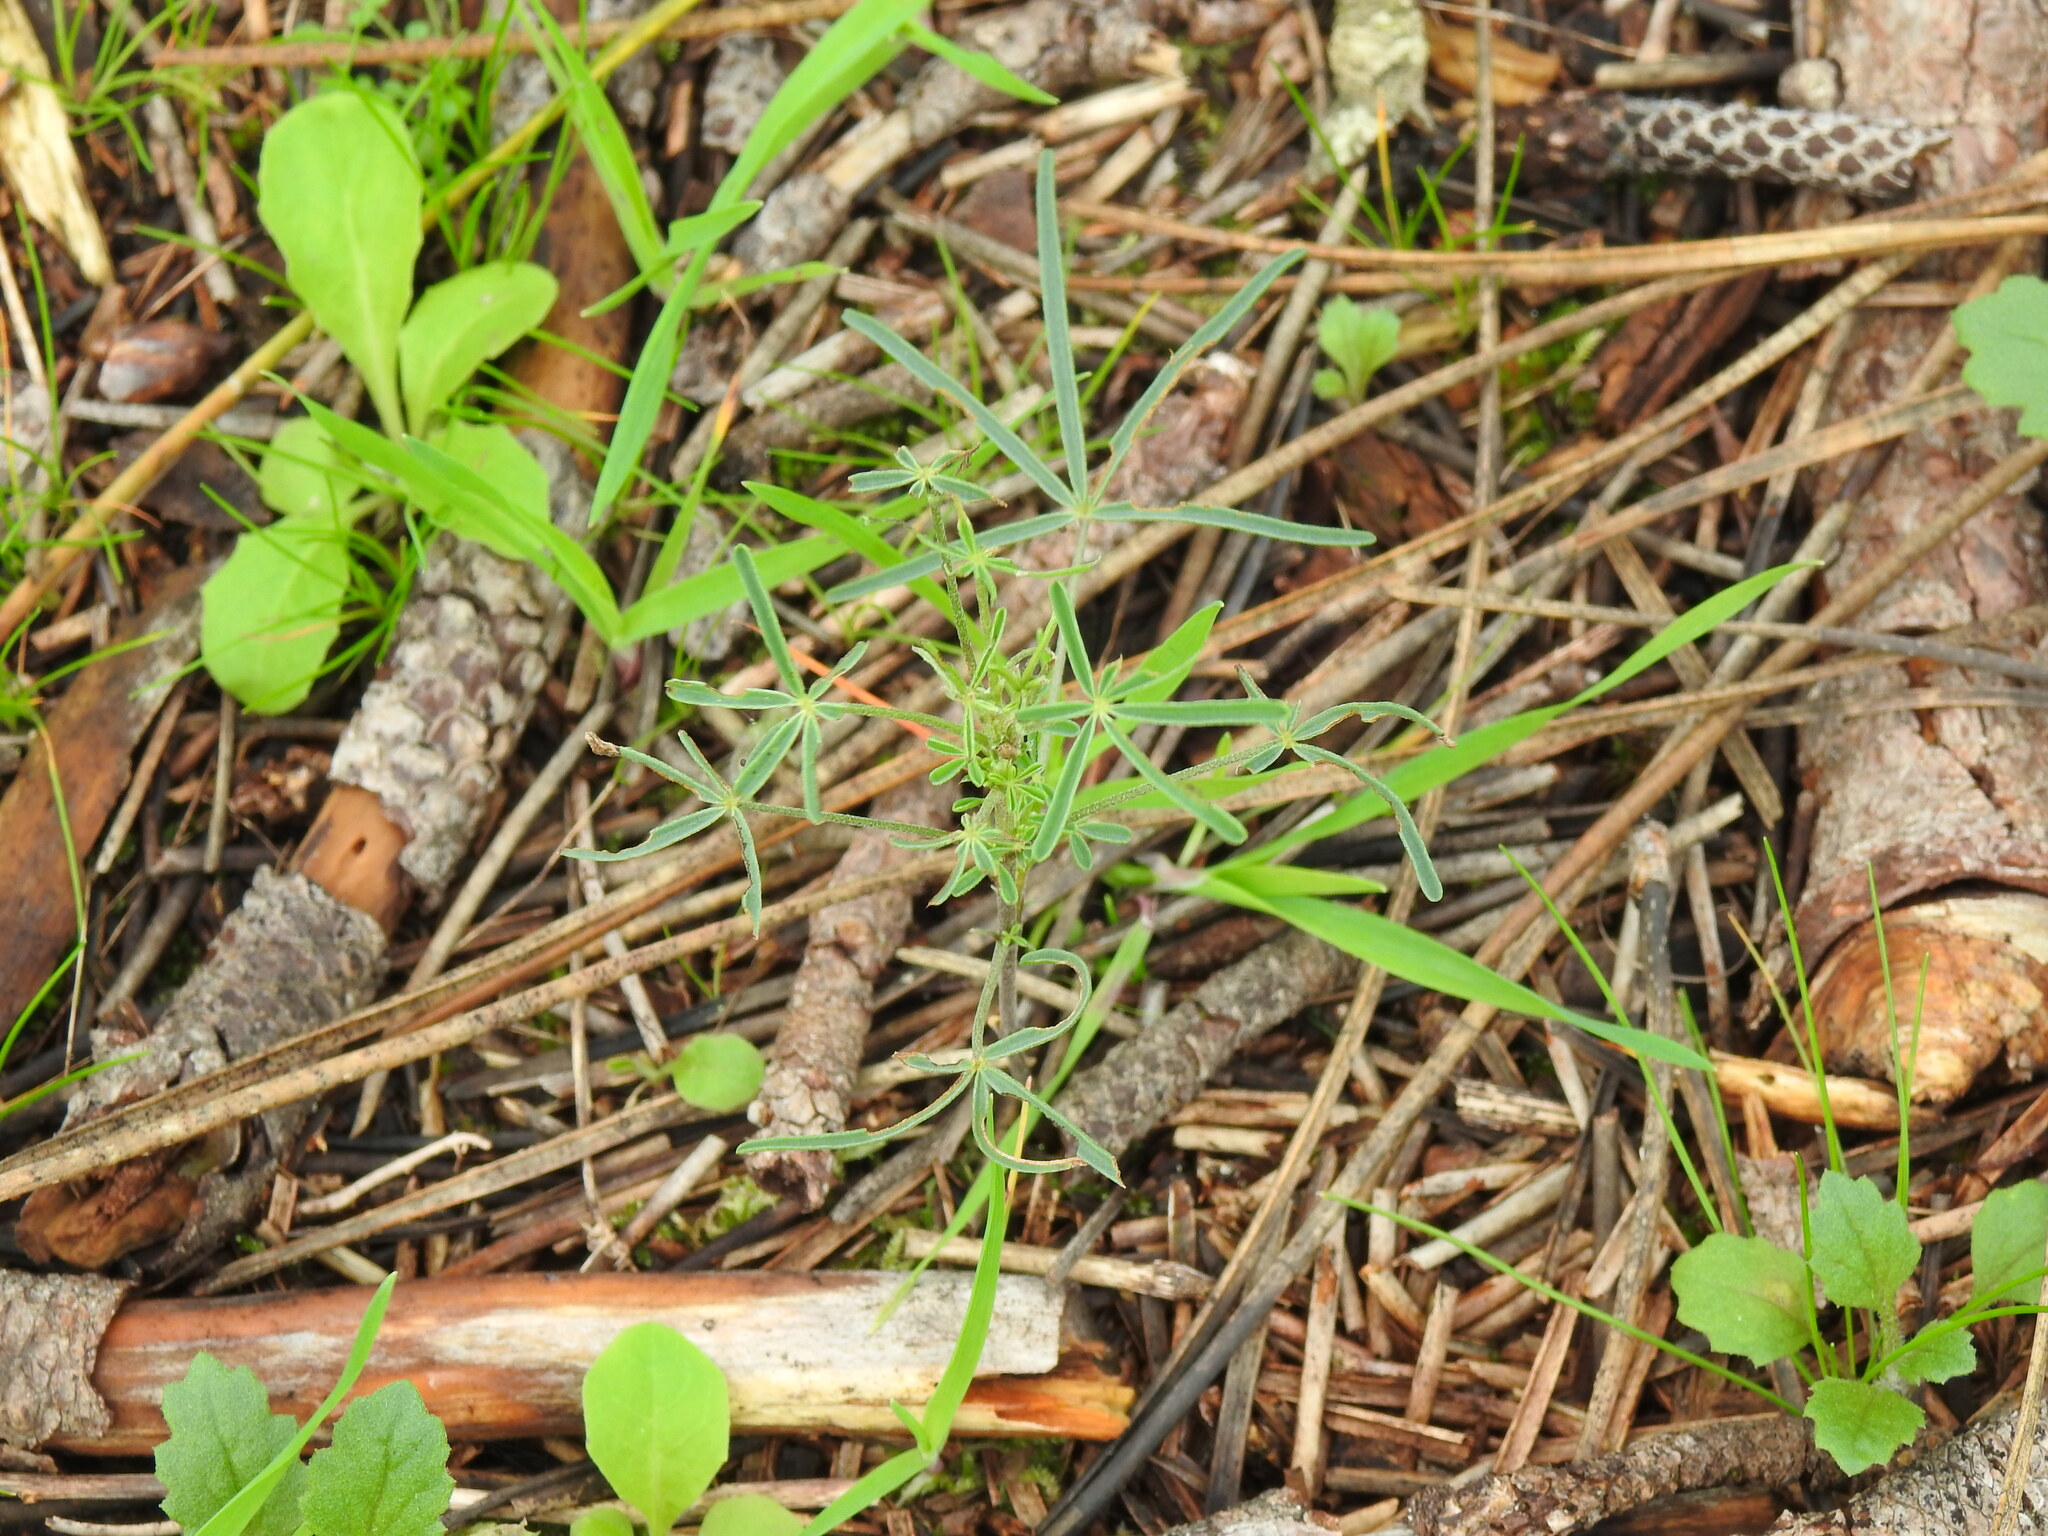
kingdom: Plantae
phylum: Tracheophyta
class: Magnoliopsida
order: Fabales
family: Fabaceae
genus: Lupinus
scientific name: Lupinus angustifolius
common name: Narrow-leaved lupin
